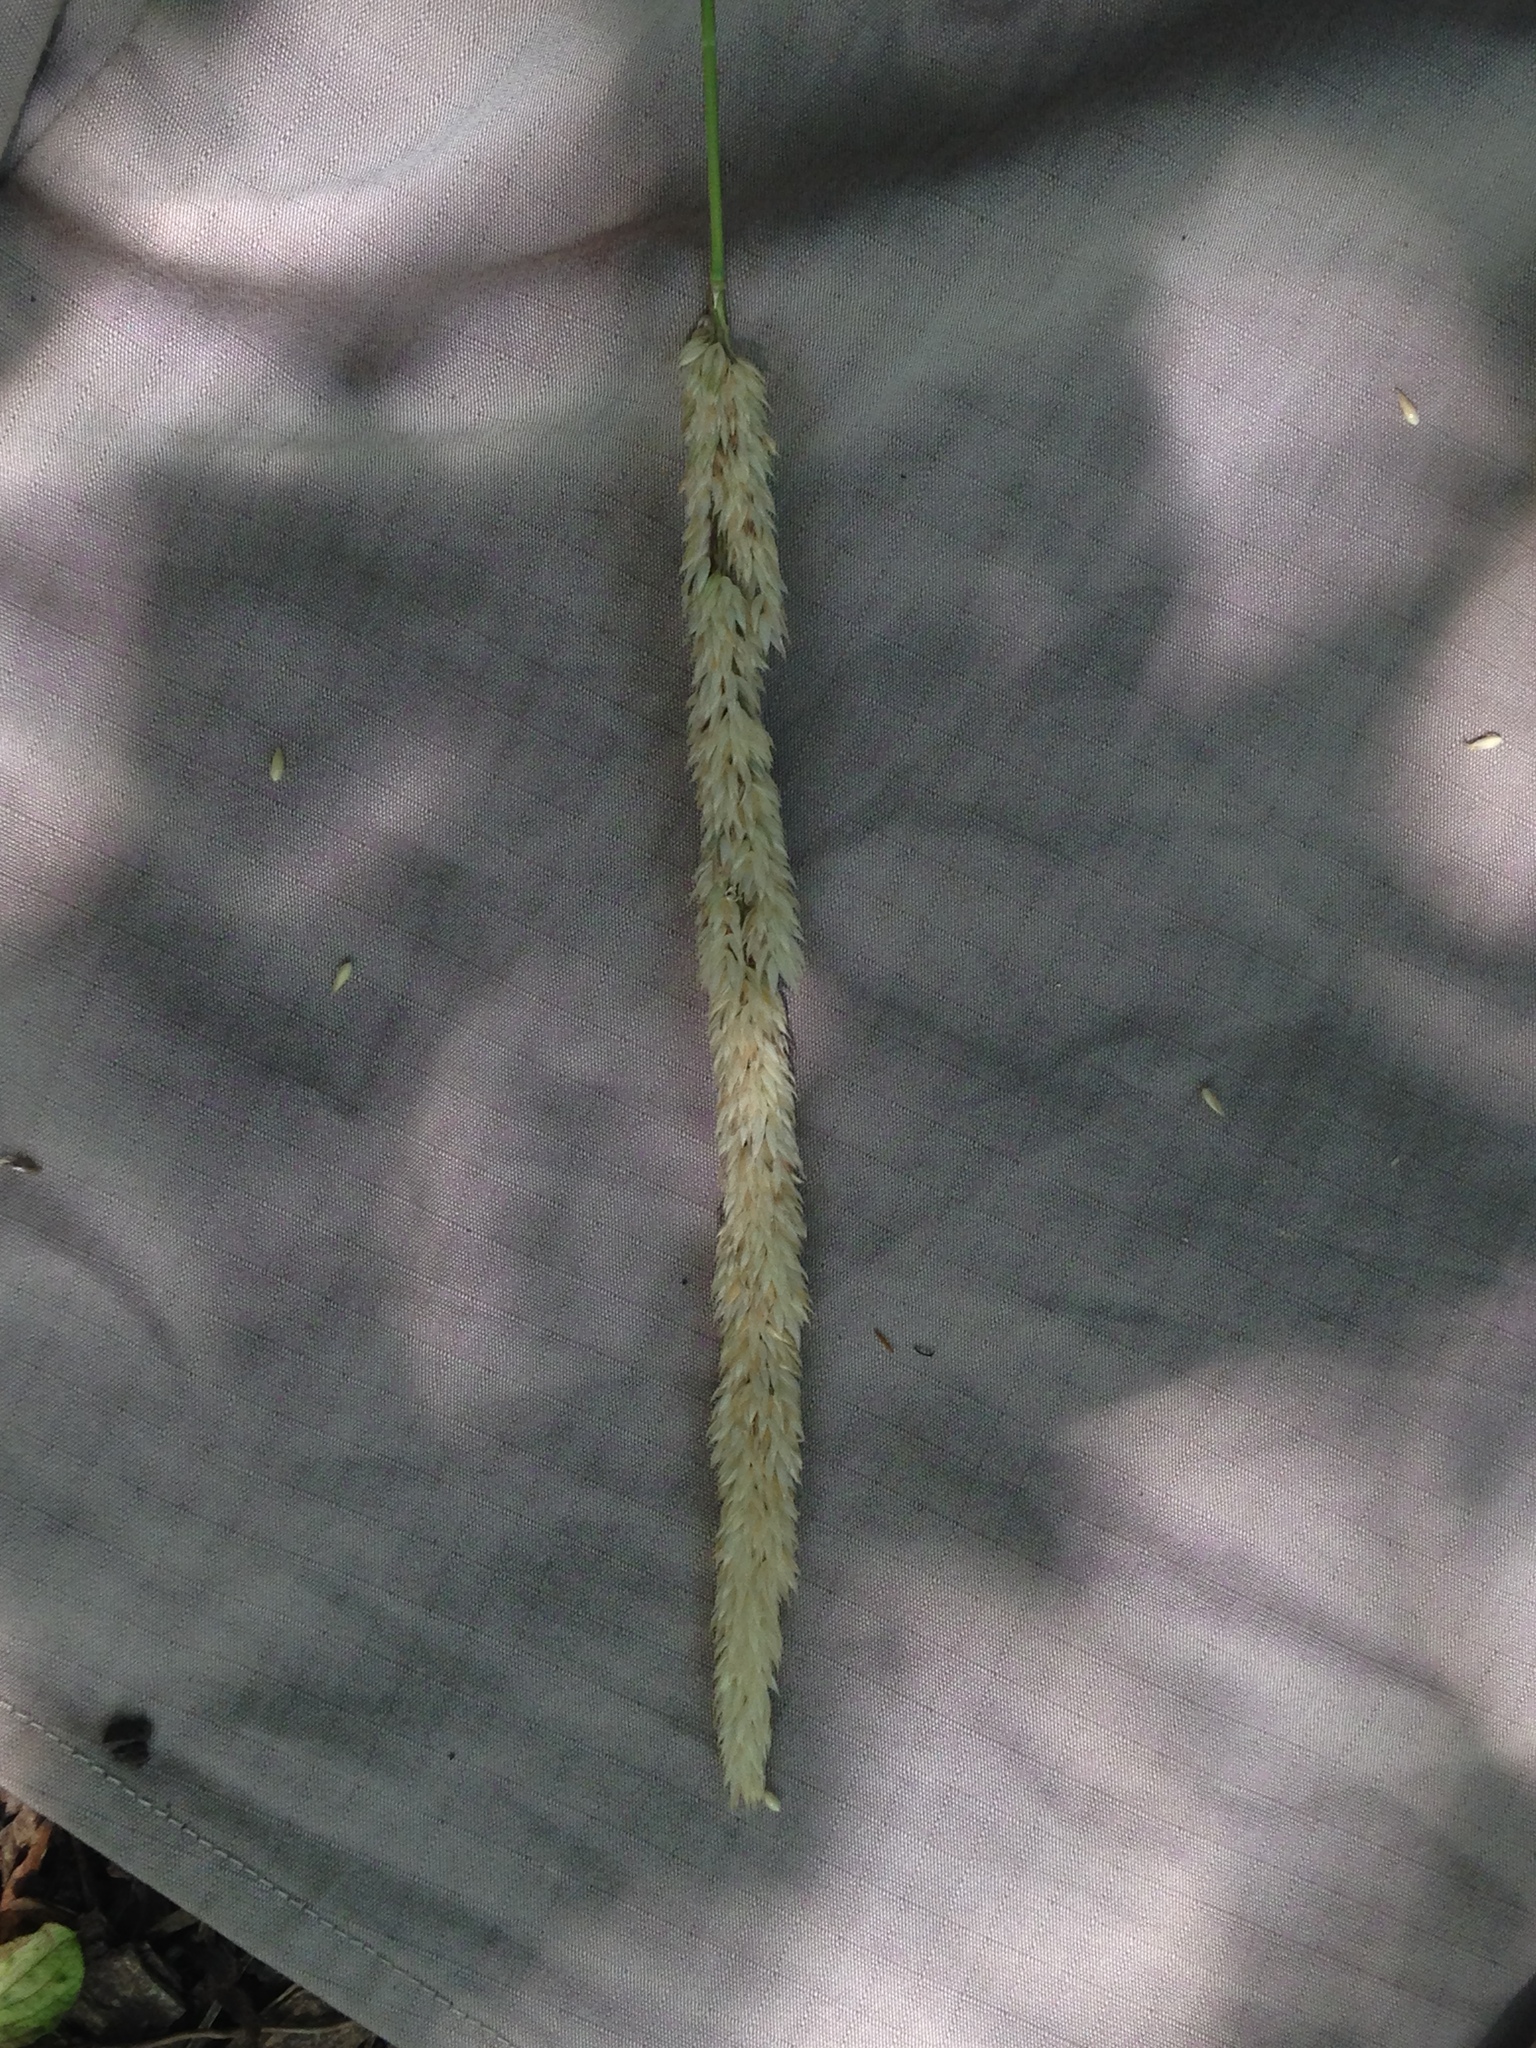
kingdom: Plantae
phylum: Tracheophyta
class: Liliopsida
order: Poales
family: Poaceae
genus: Phalaris
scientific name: Phalaris arundinacea
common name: Reed canary-grass
